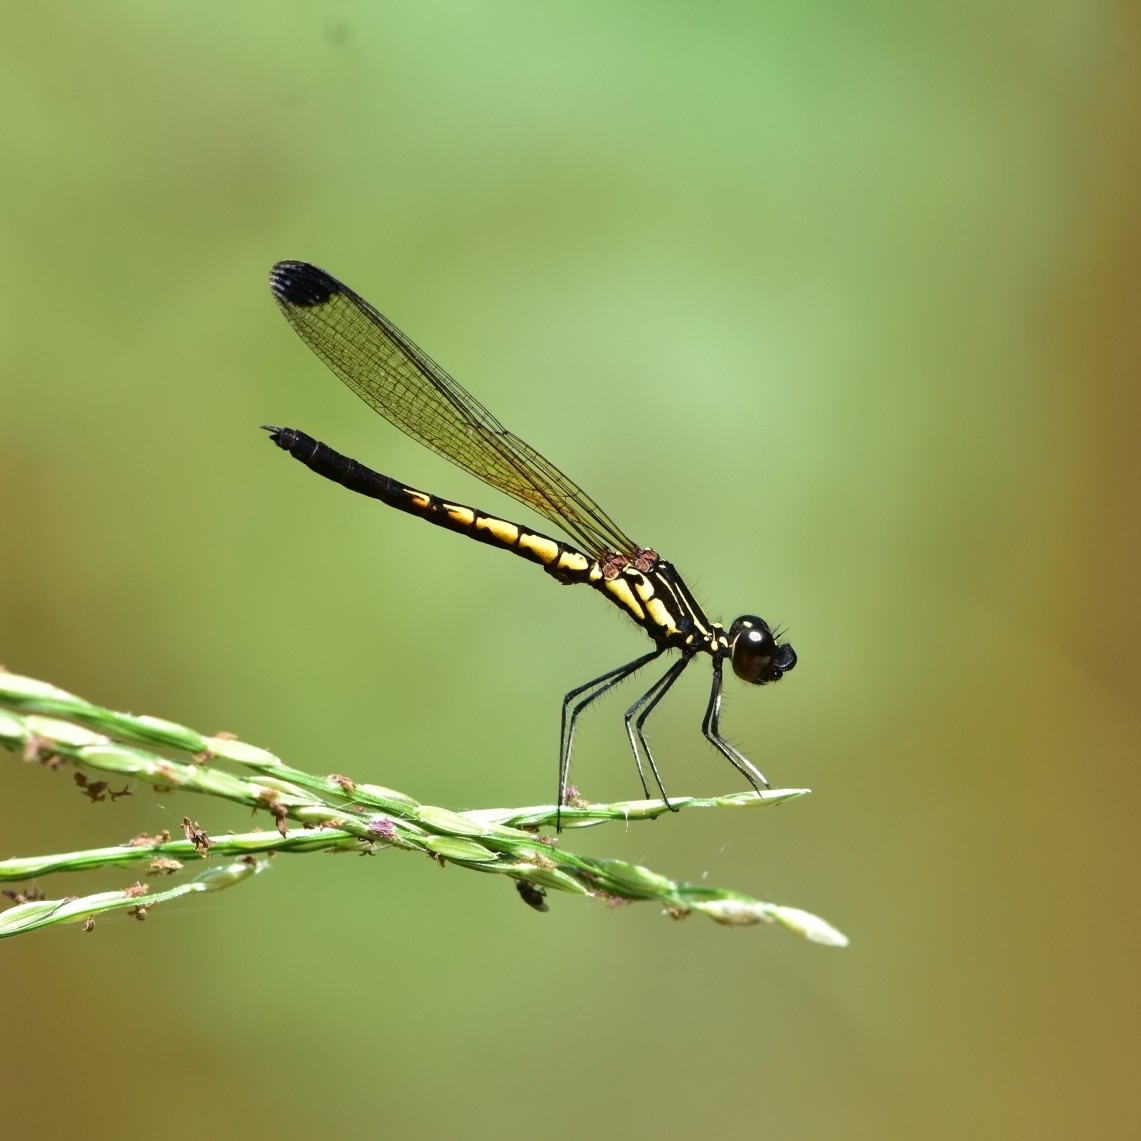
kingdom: Animalia
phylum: Arthropoda
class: Insecta
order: Odonata
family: Chlorocyphidae
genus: Libellago
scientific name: Libellago indica
